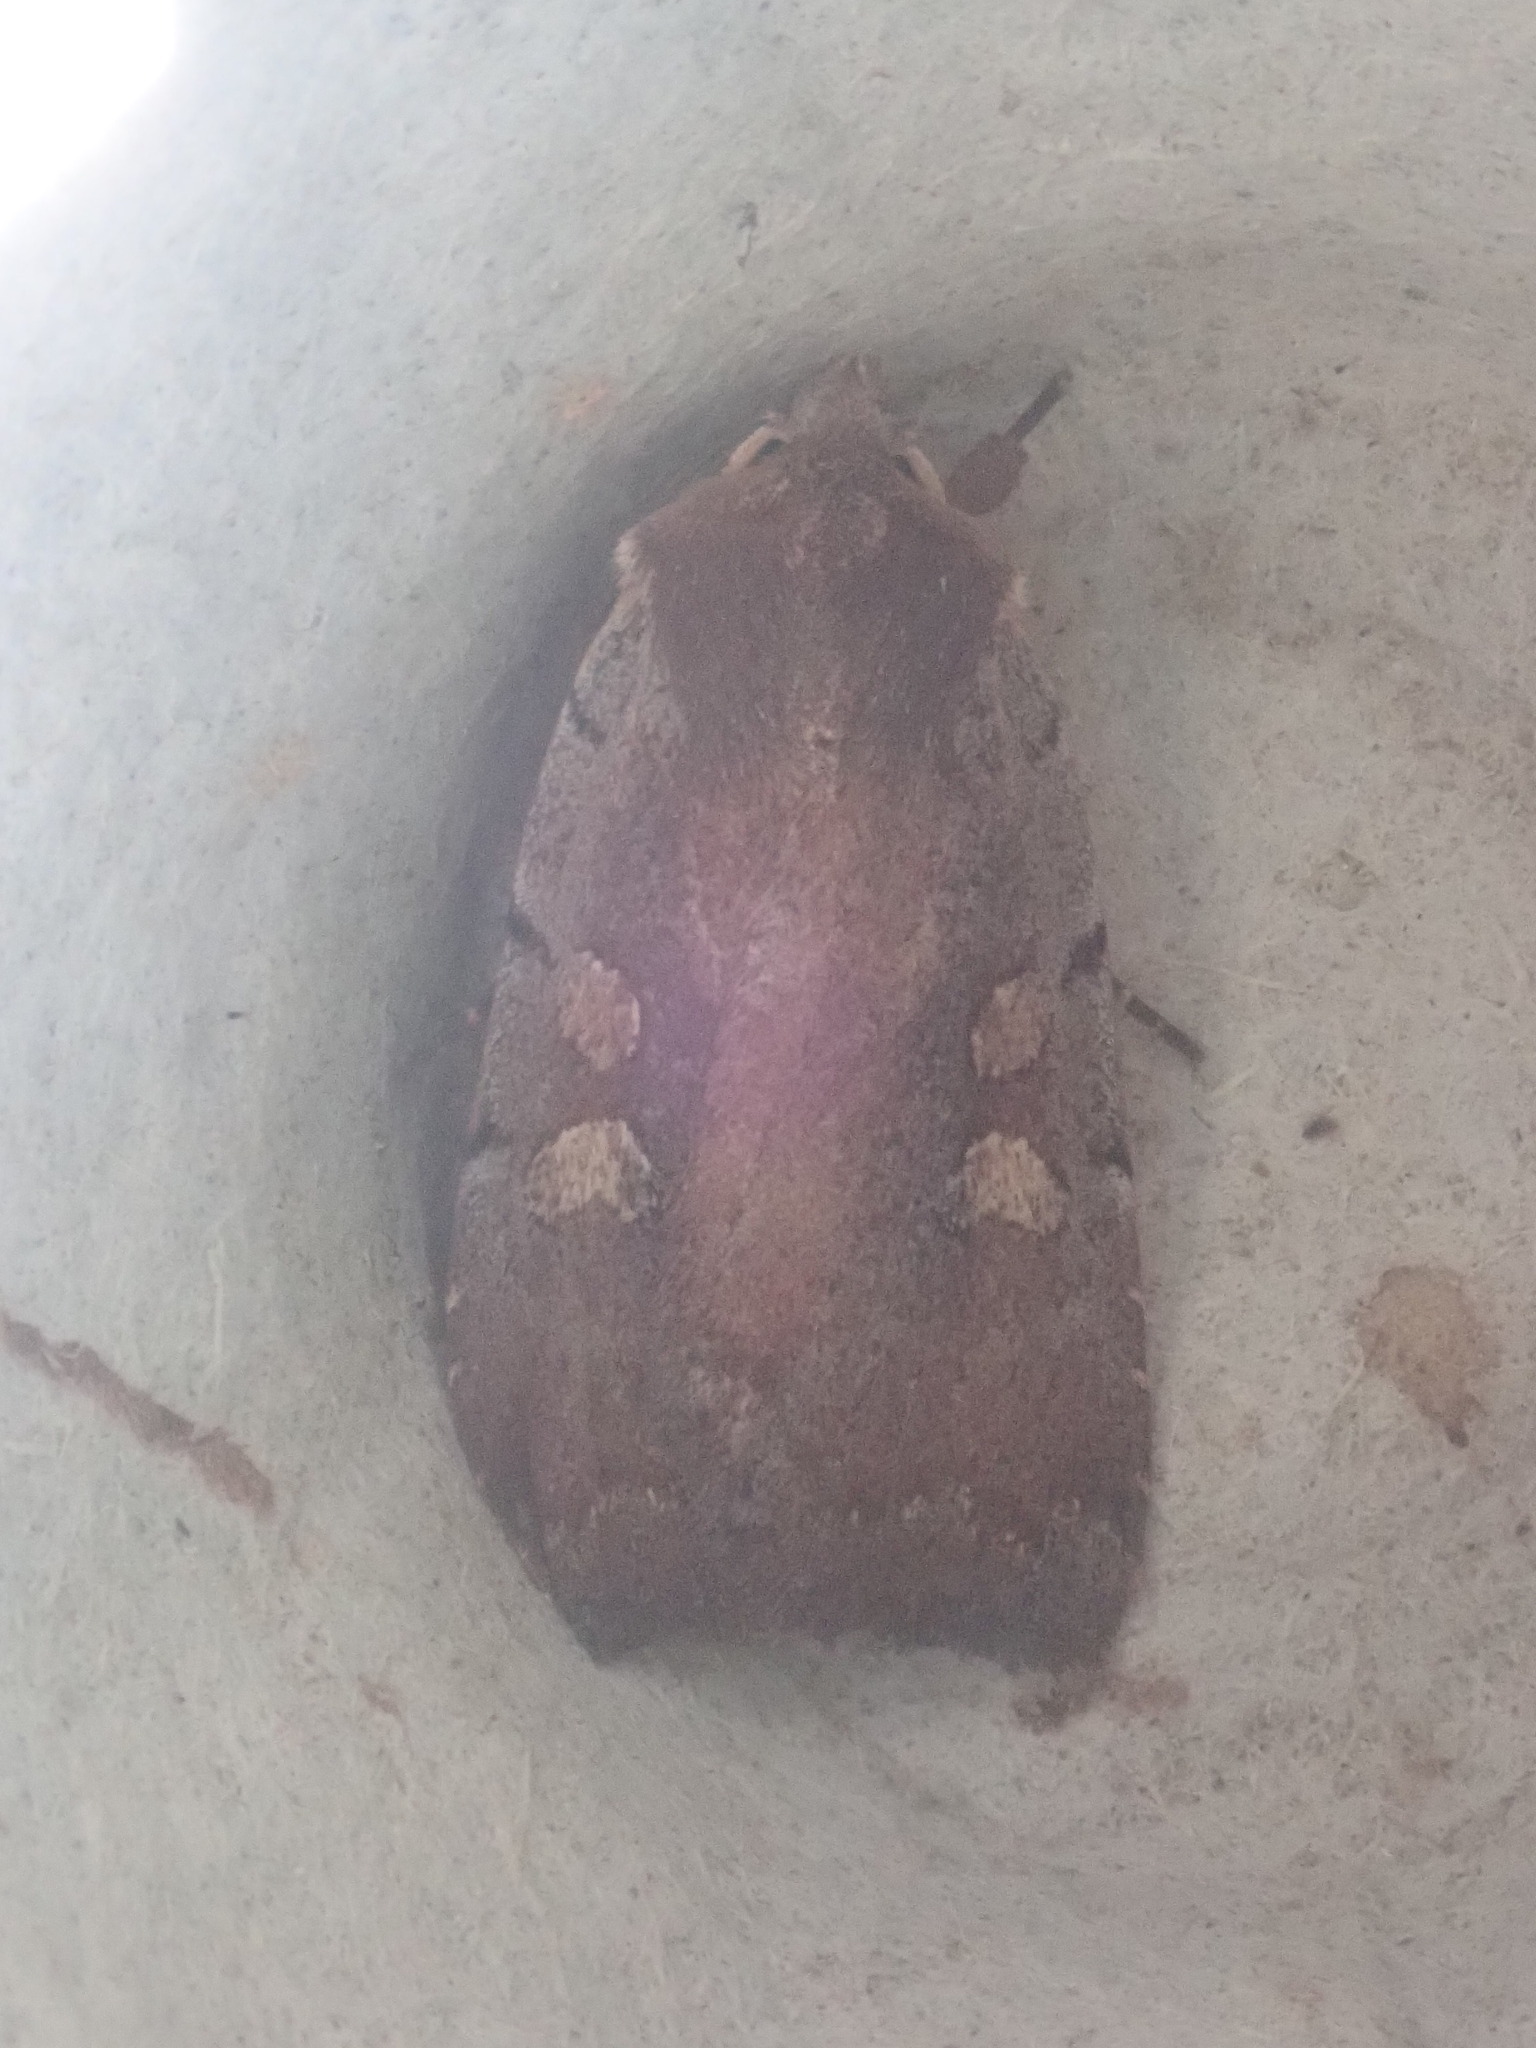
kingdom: Animalia
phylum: Arthropoda
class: Insecta
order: Lepidoptera
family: Noctuidae
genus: Xestia
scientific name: Xestia dilucida
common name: Dull reddish dart
